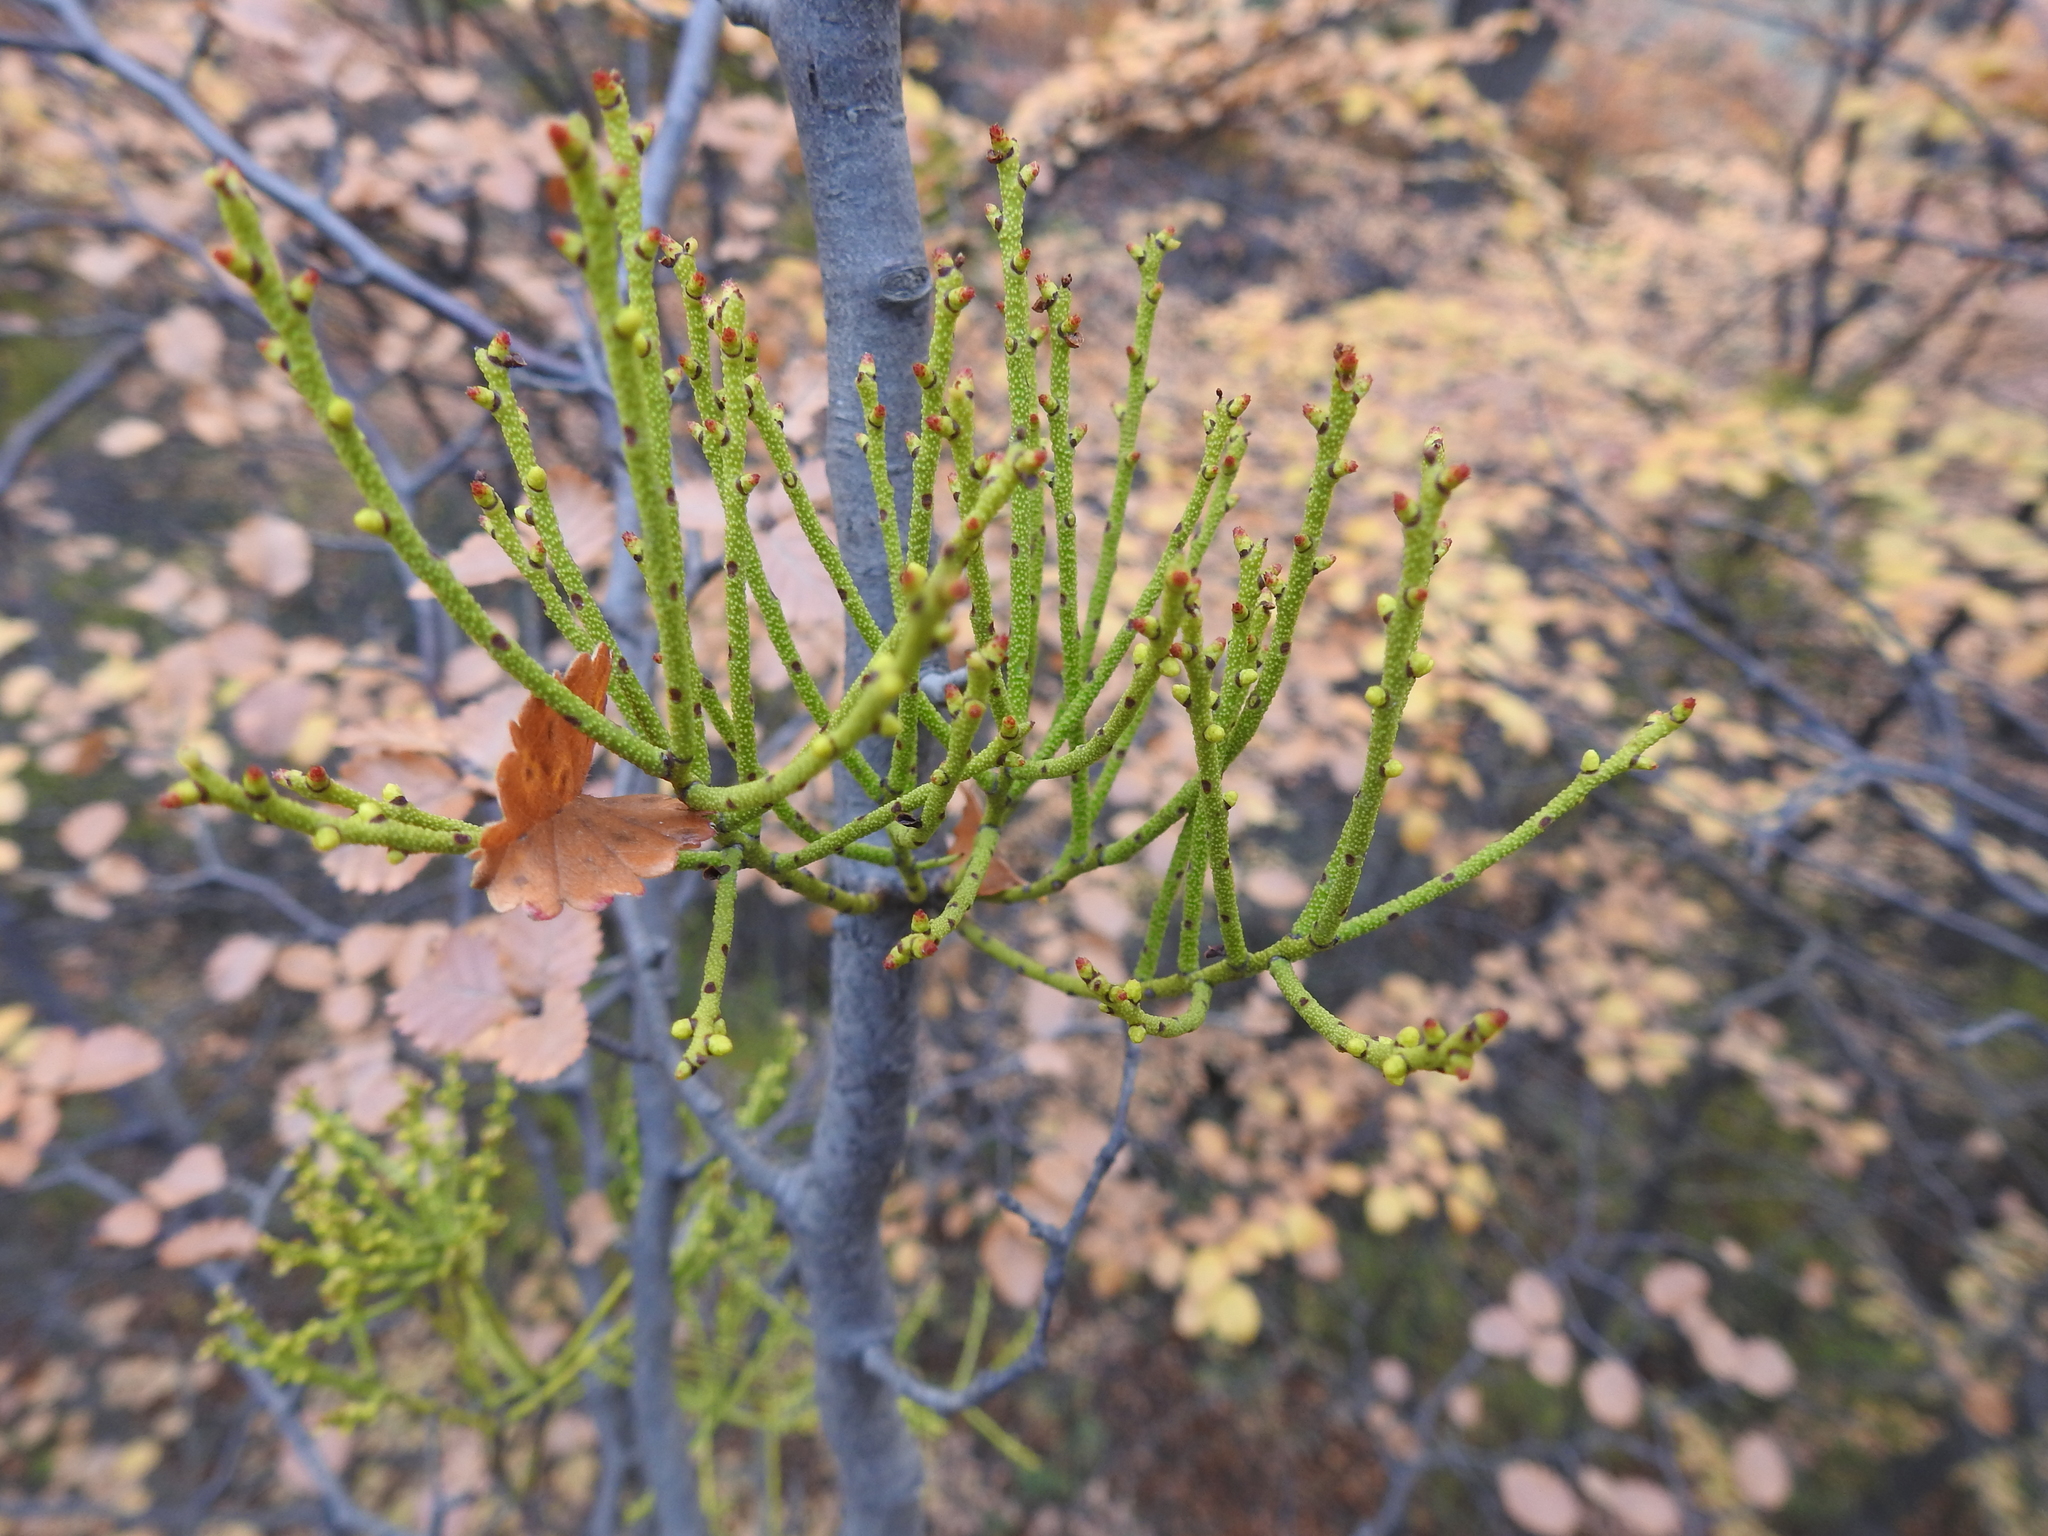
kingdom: Plantae
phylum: Tracheophyta
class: Magnoliopsida
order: Santalales
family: Misodendraceae
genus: Misodendrum
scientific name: Misodendrum punctulatum
